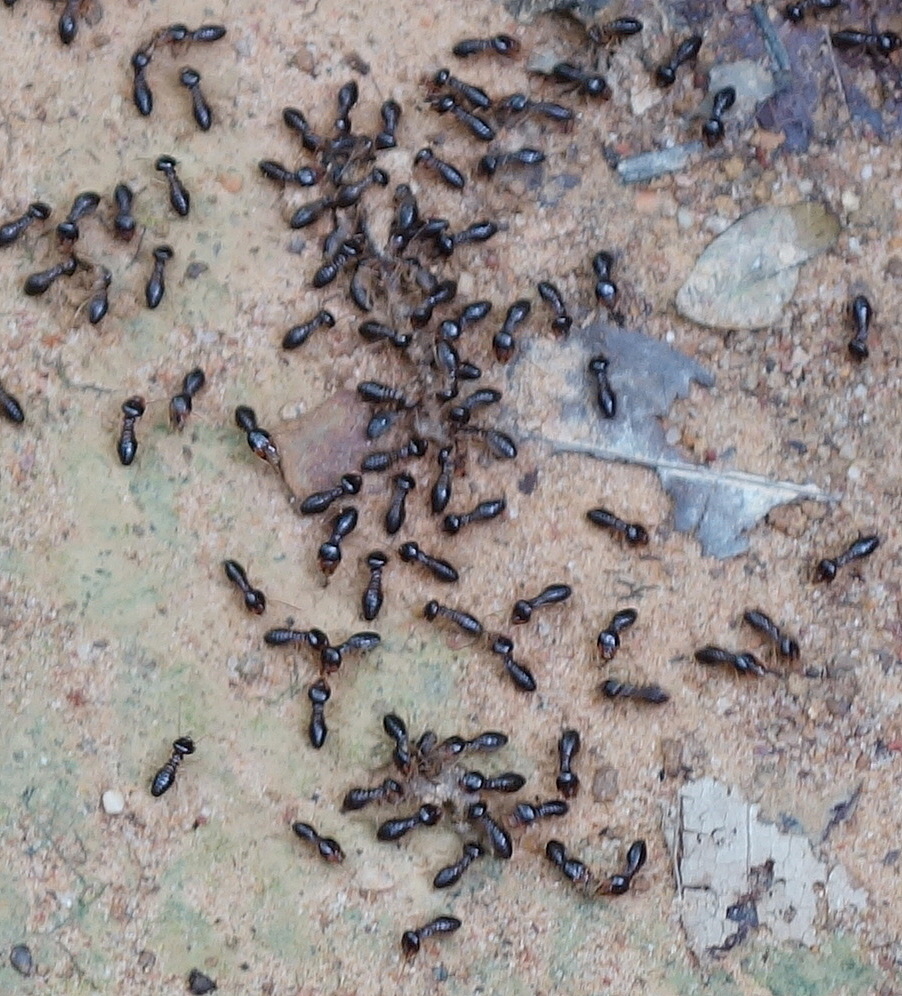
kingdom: Animalia
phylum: Arthropoda
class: Insecta
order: Blattodea
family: Termitidae
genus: Macrotermes
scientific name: Macrotermes carbonarius
